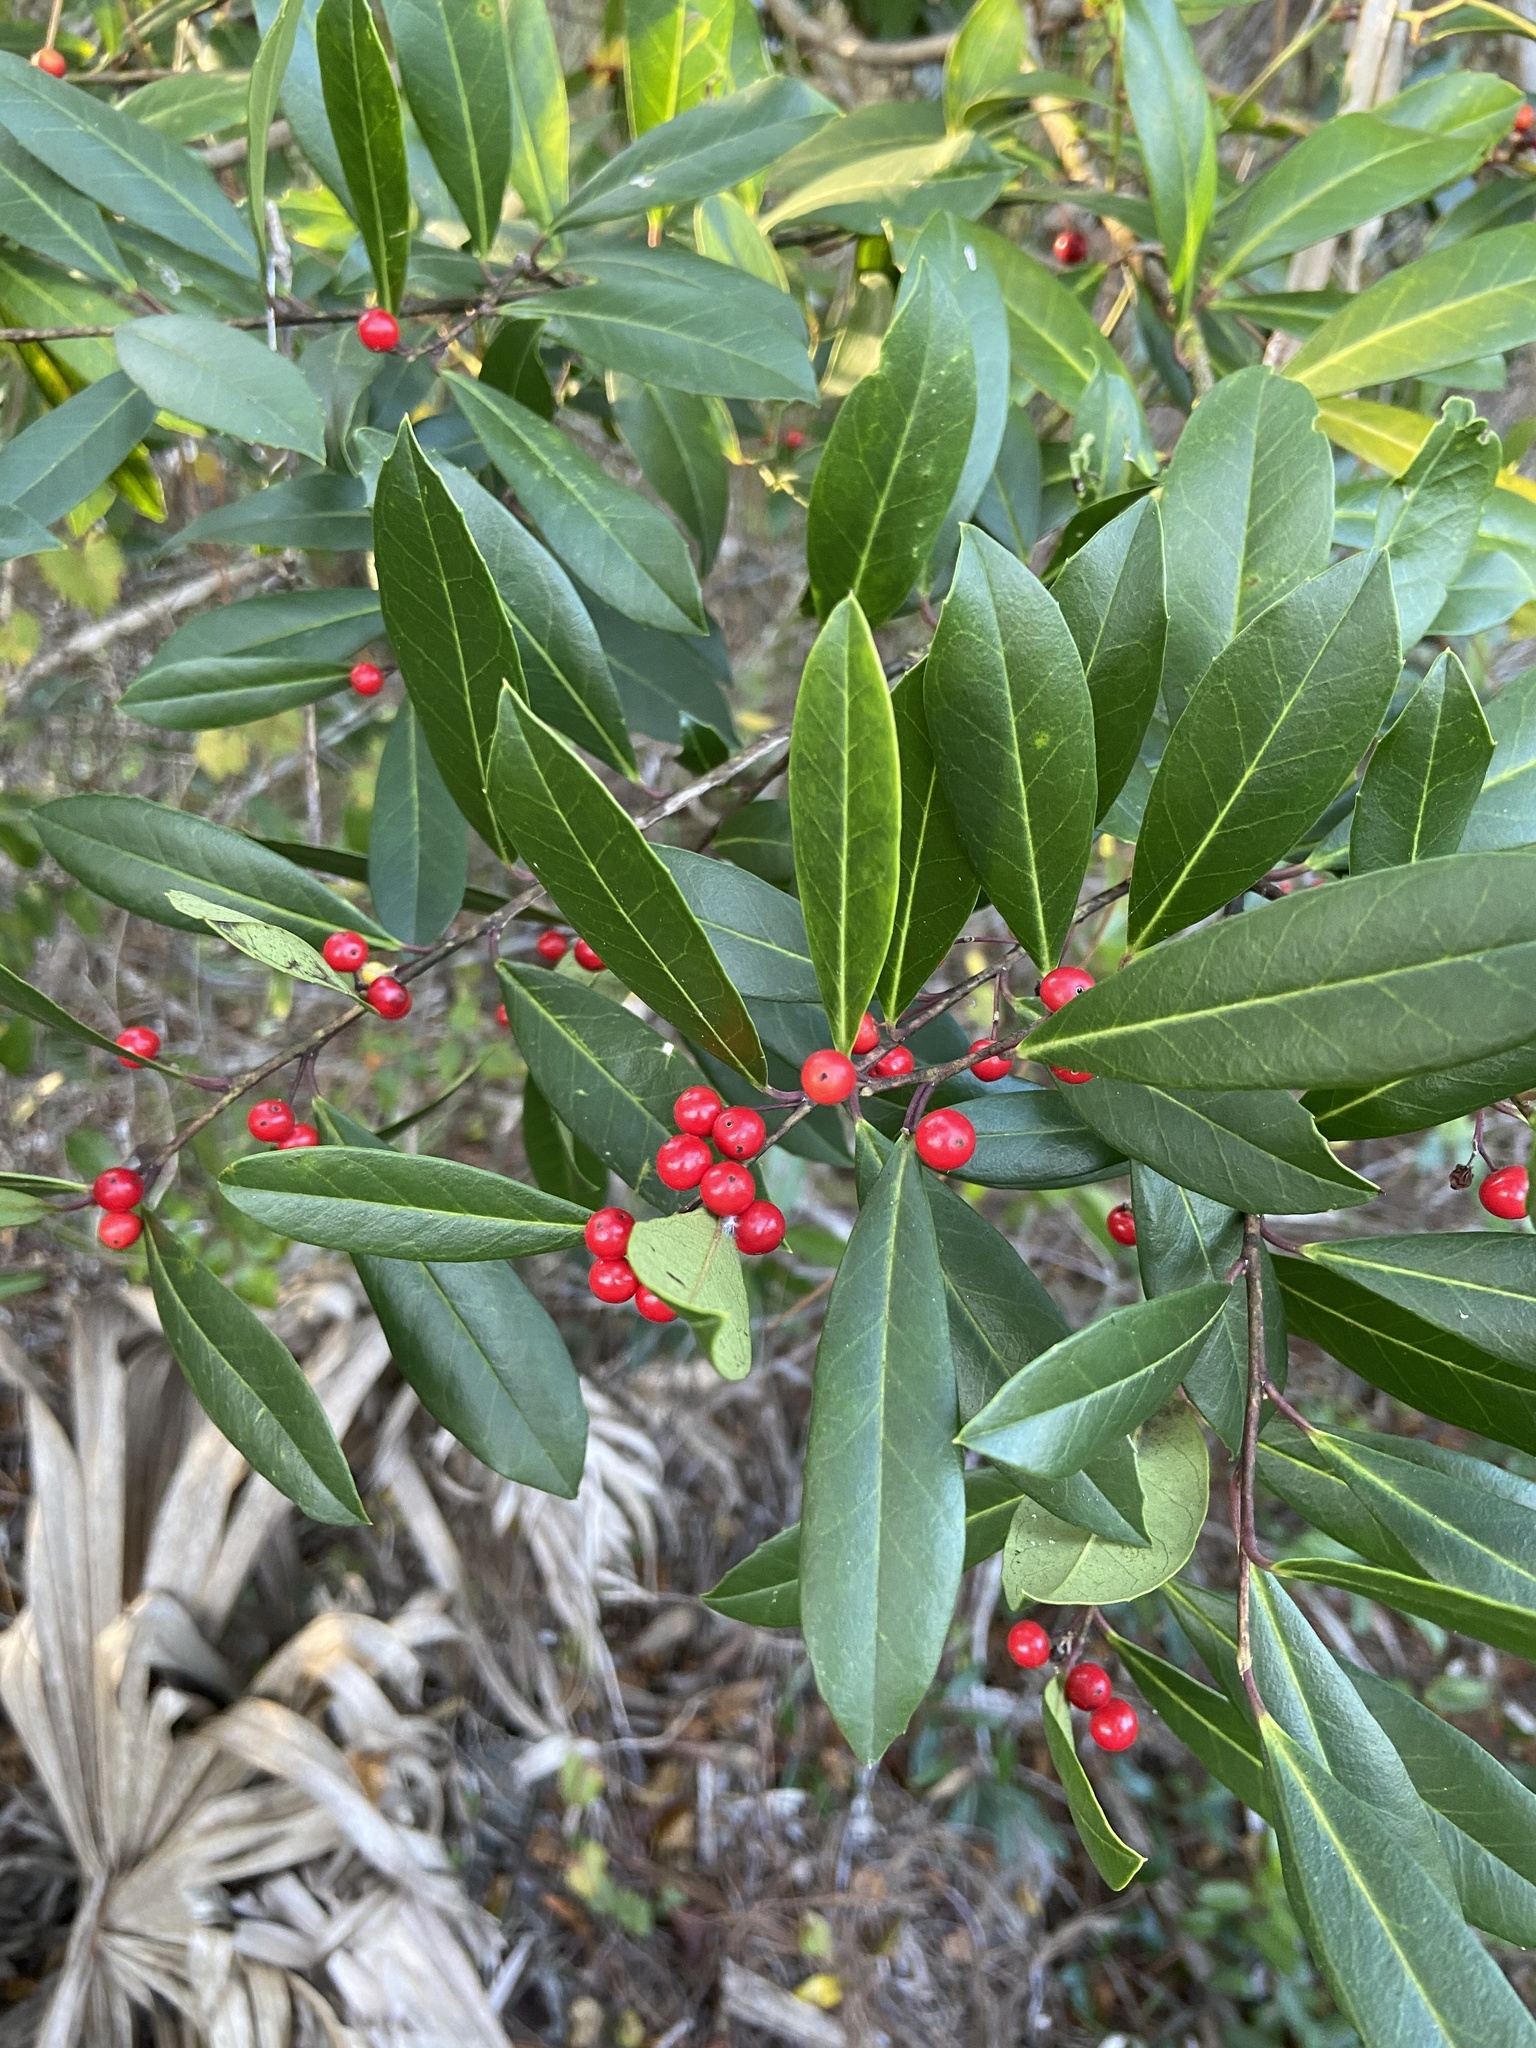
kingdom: Plantae
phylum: Tracheophyta
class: Magnoliopsida
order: Aquifoliales
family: Aquifoliaceae
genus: Ilex
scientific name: Ilex cassine
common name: Dahoon
